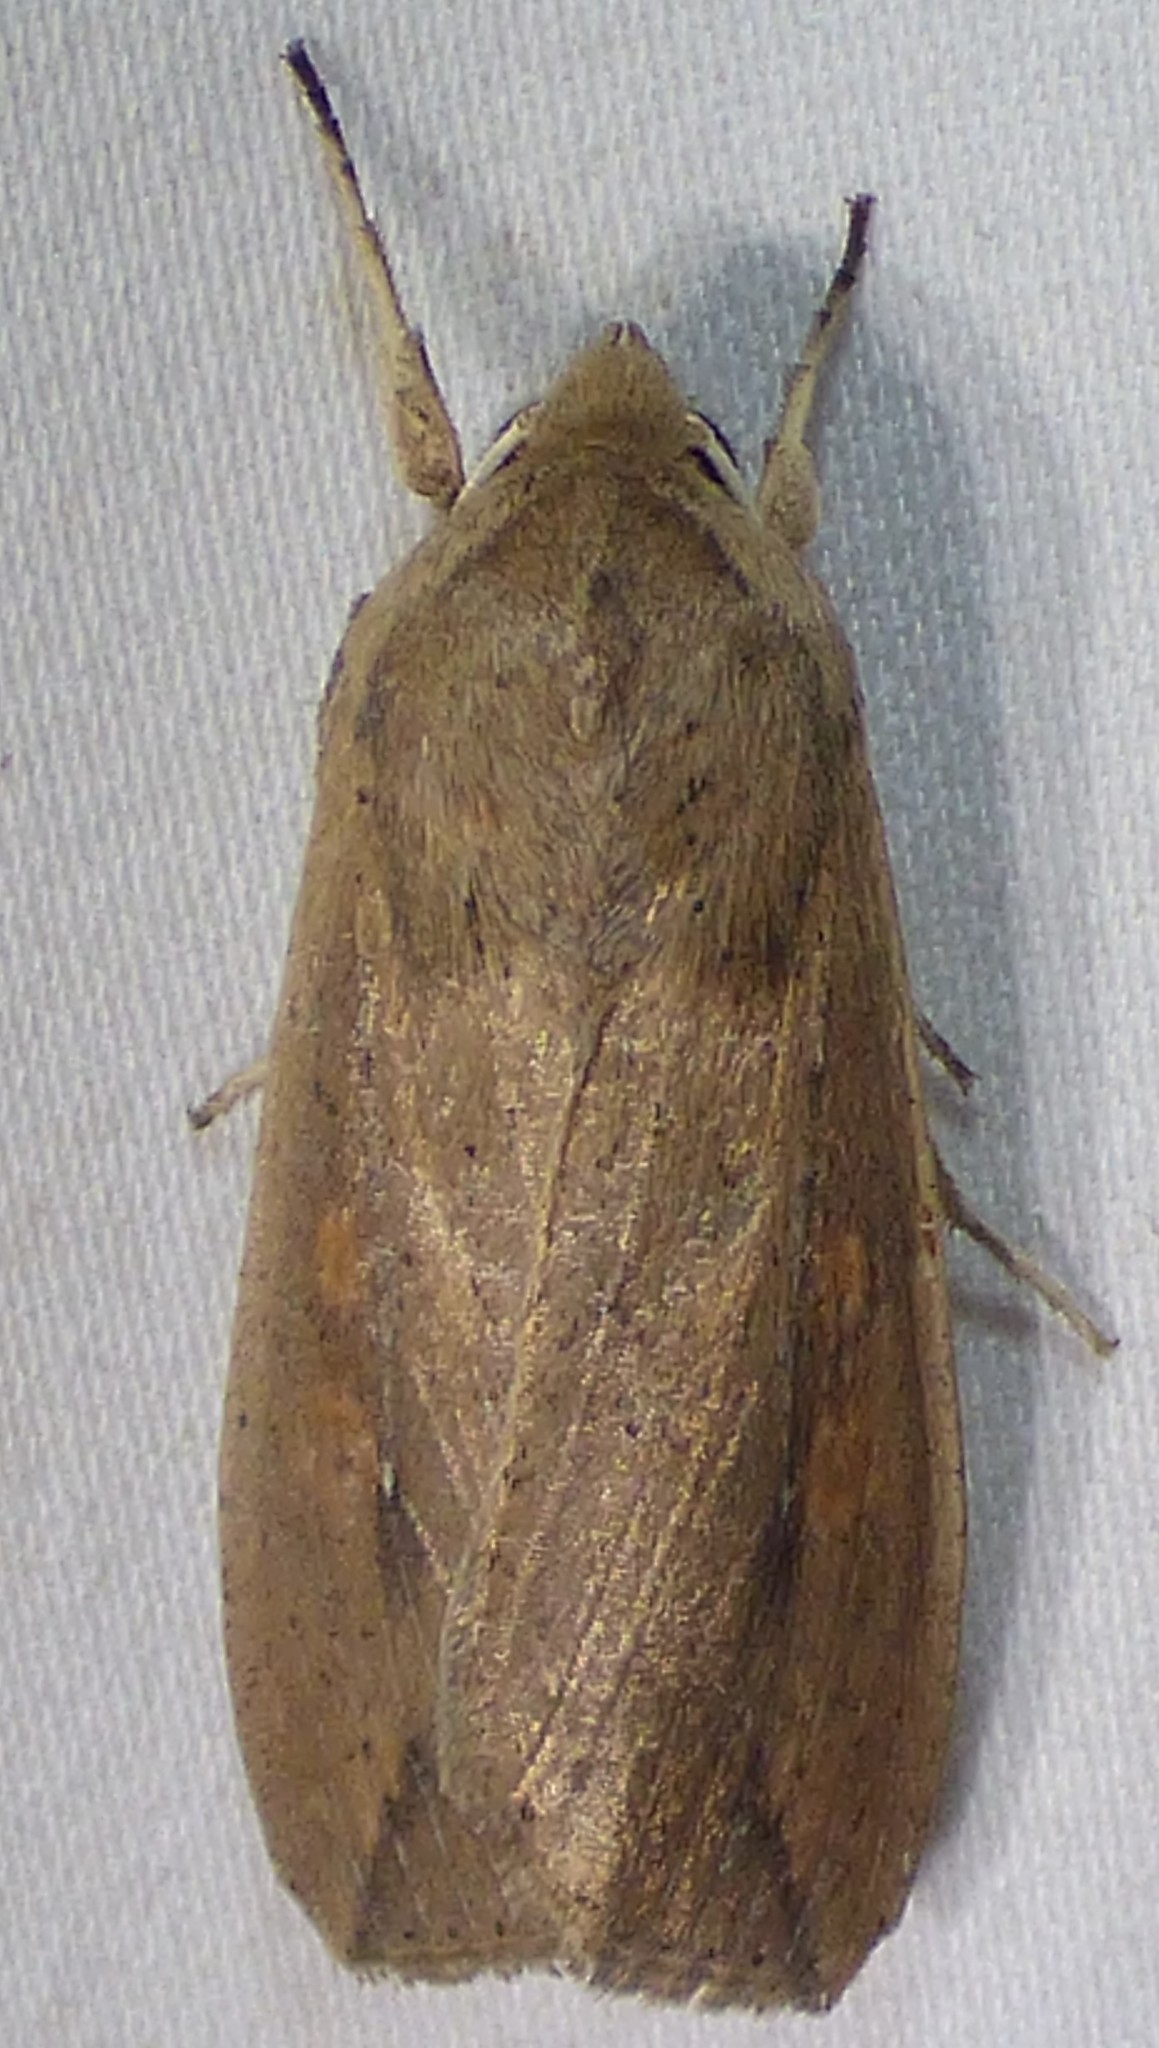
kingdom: Animalia
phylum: Arthropoda
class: Insecta
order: Lepidoptera
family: Noctuidae
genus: Mythimna
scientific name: Mythimna unipuncta
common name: White-speck
